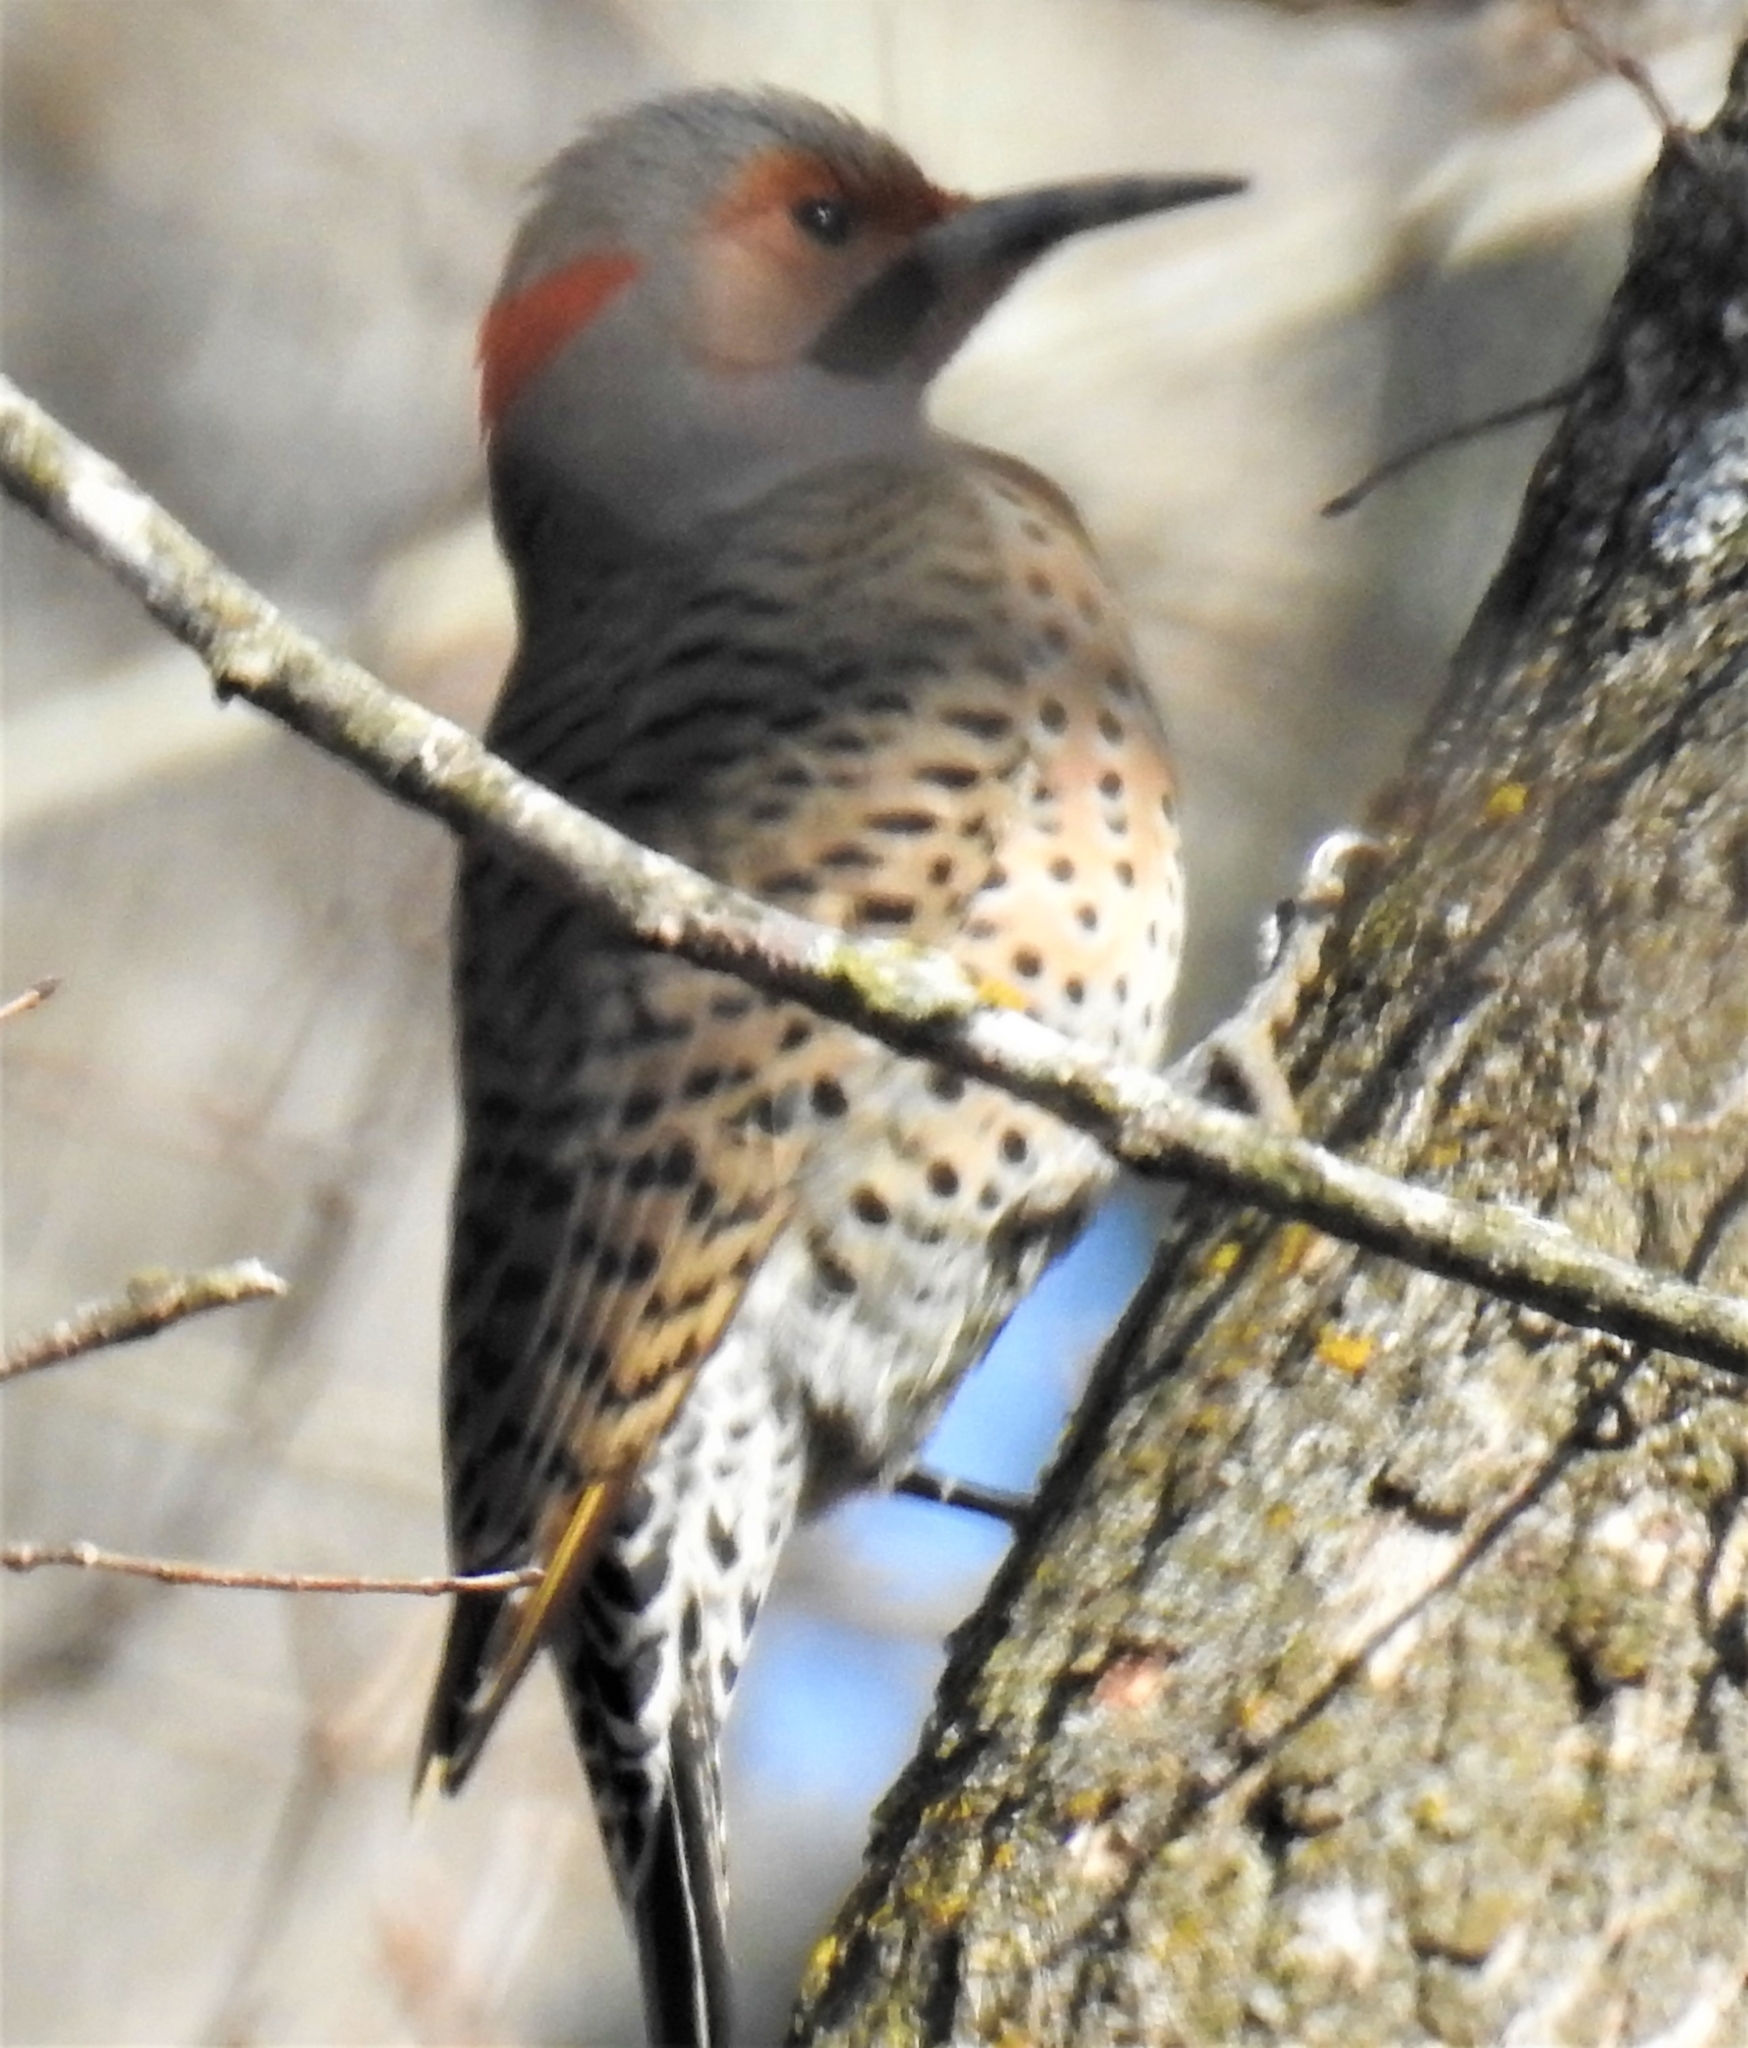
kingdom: Animalia
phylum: Chordata
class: Aves
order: Piciformes
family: Picidae
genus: Colaptes
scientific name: Colaptes auratus
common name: Northern flicker
